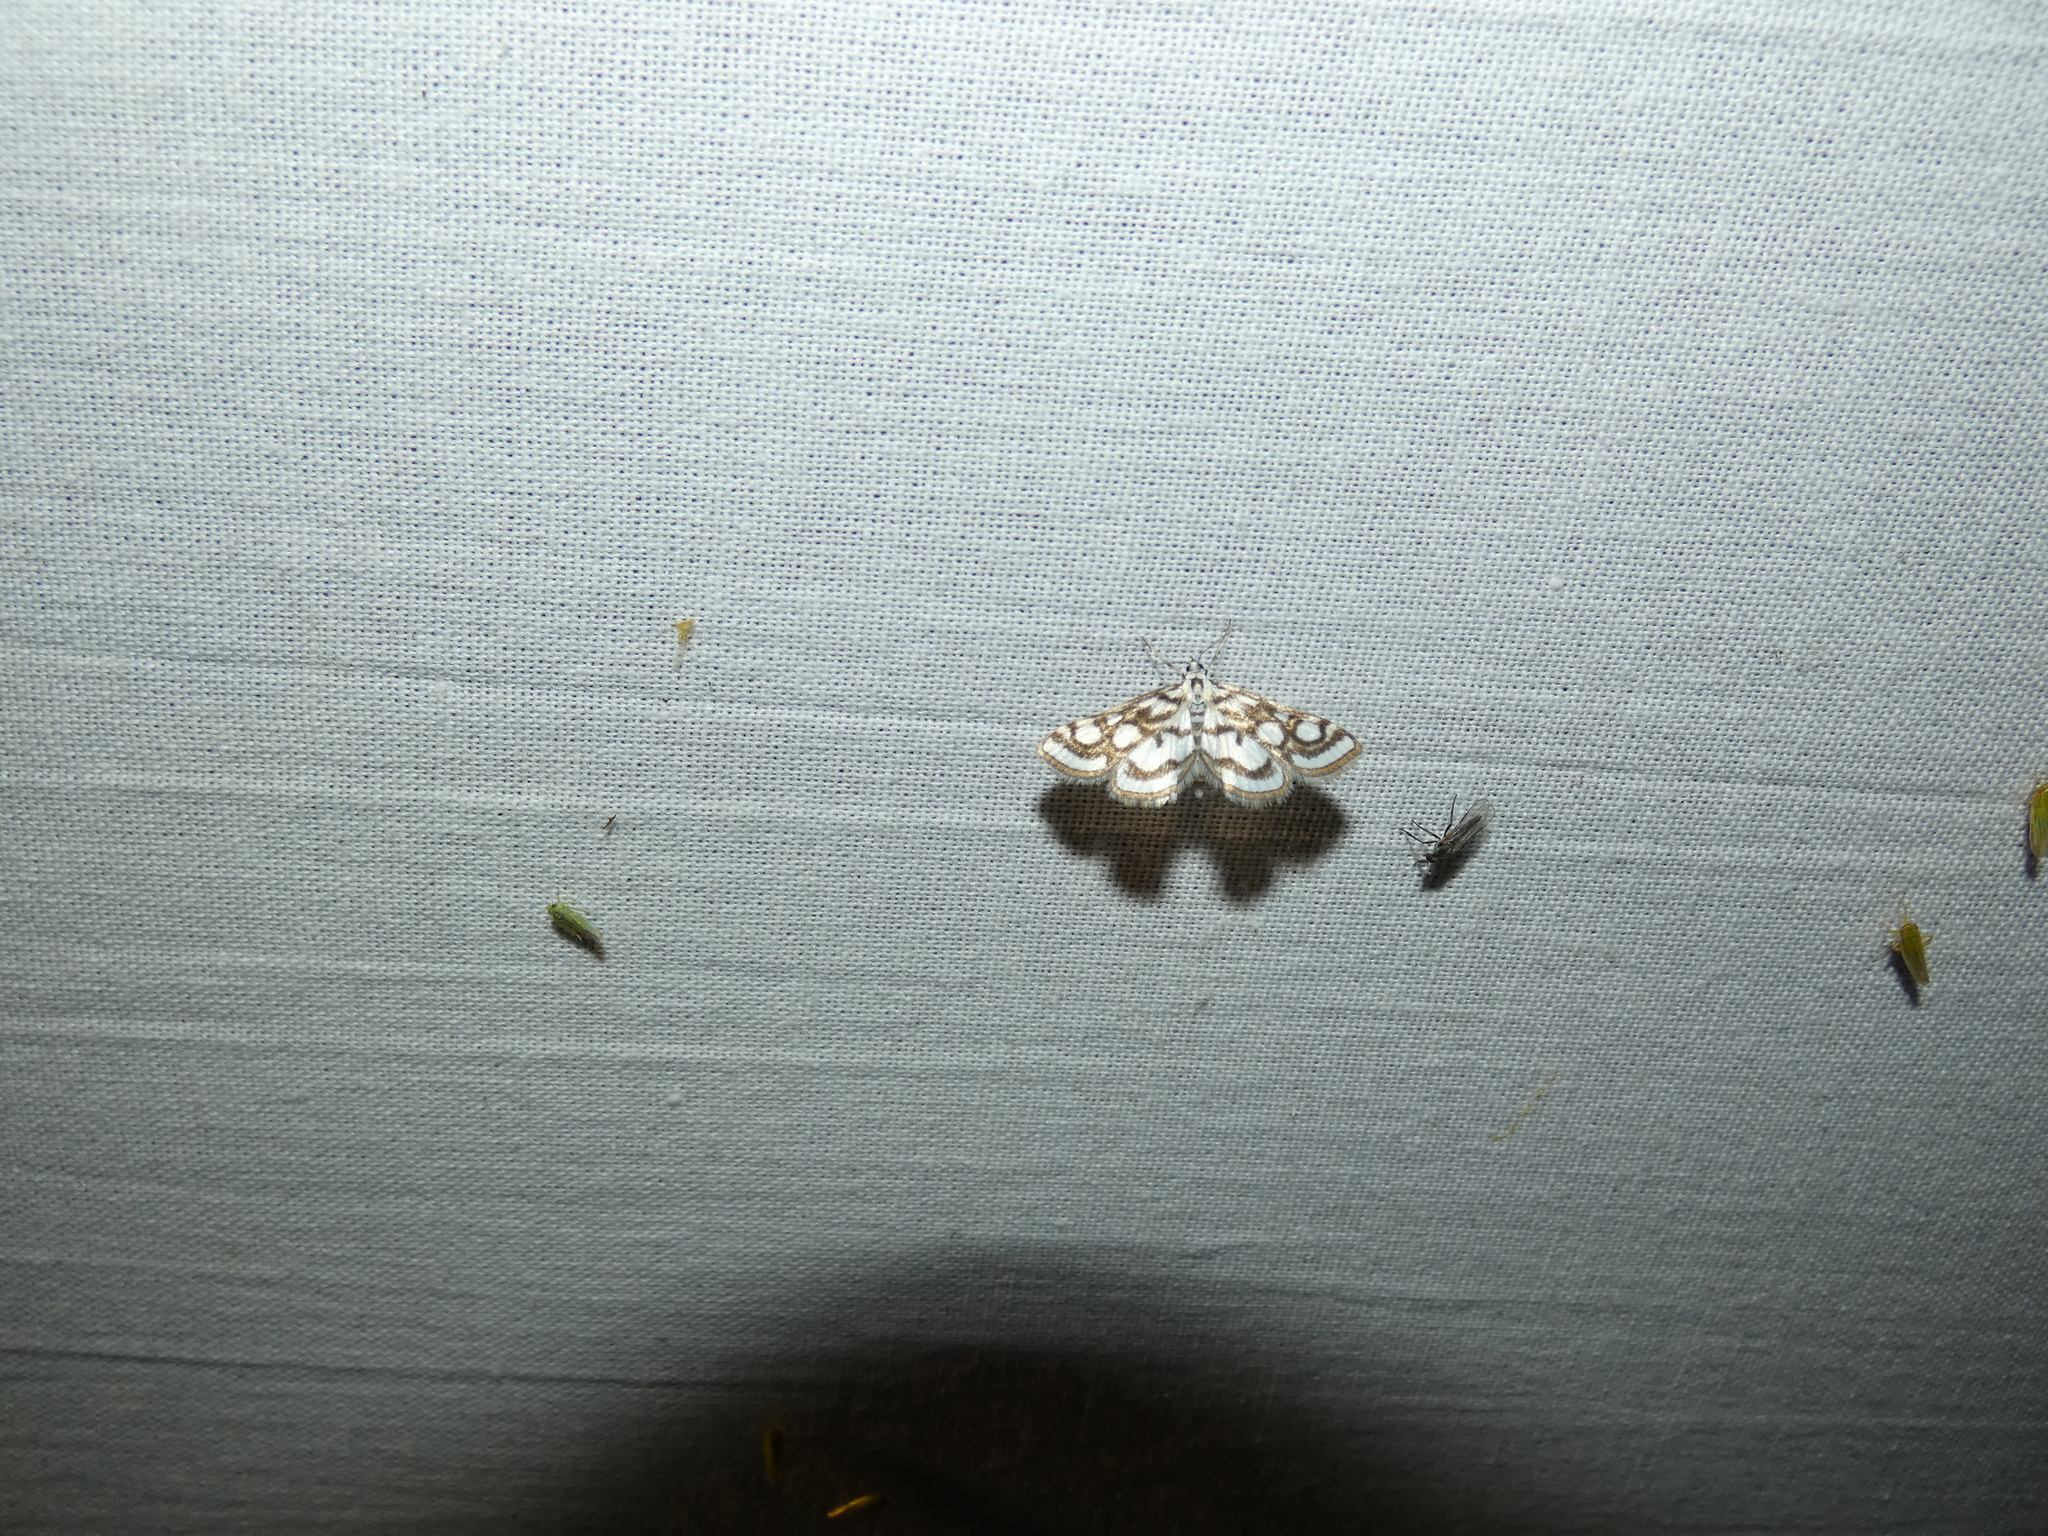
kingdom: Animalia
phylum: Arthropoda
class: Insecta
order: Lepidoptera
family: Crambidae
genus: Nymphula
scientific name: Nymphula nitidulata
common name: Beautiful china mark
